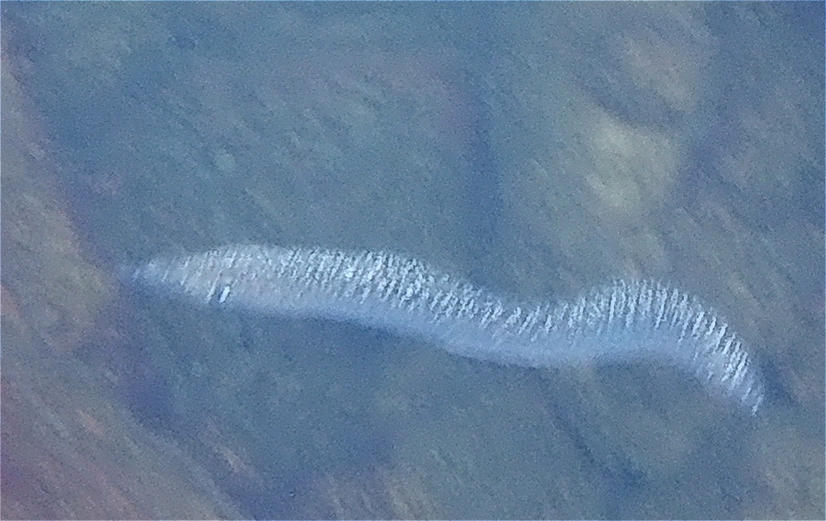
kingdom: Animalia
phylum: Chordata
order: Anguilliformes
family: Muraenidae
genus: Muraena
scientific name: Muraena clepsydra
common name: Hourglass moray
